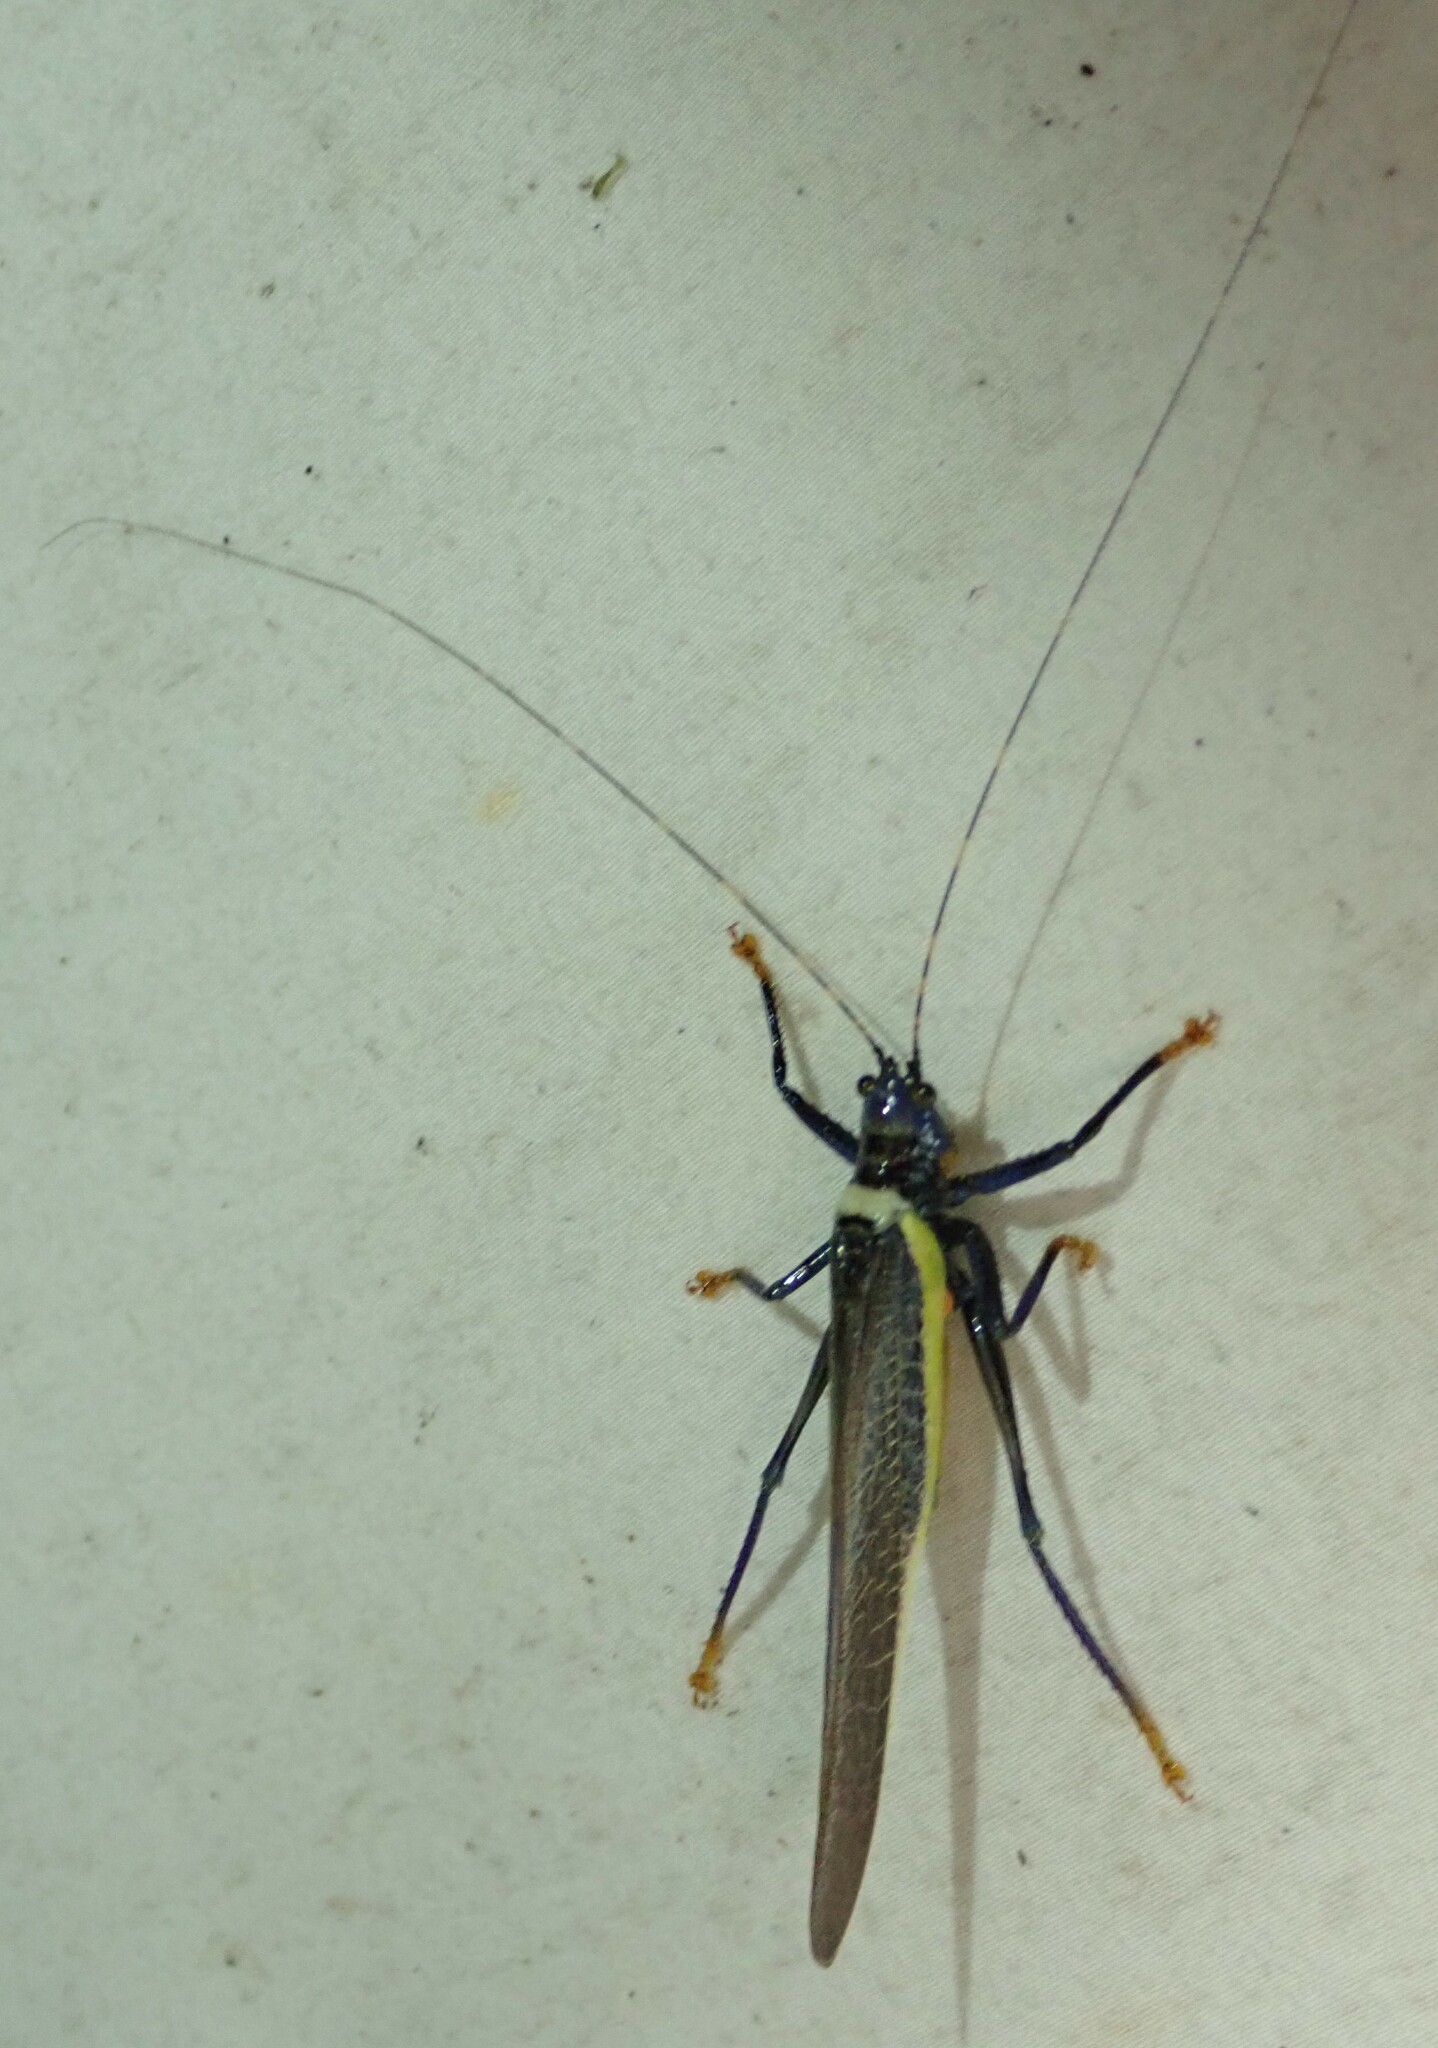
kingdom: Animalia
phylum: Arthropoda
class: Insecta
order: Orthoptera
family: Tettigoniidae
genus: Moncheca
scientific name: Moncheca elegans
